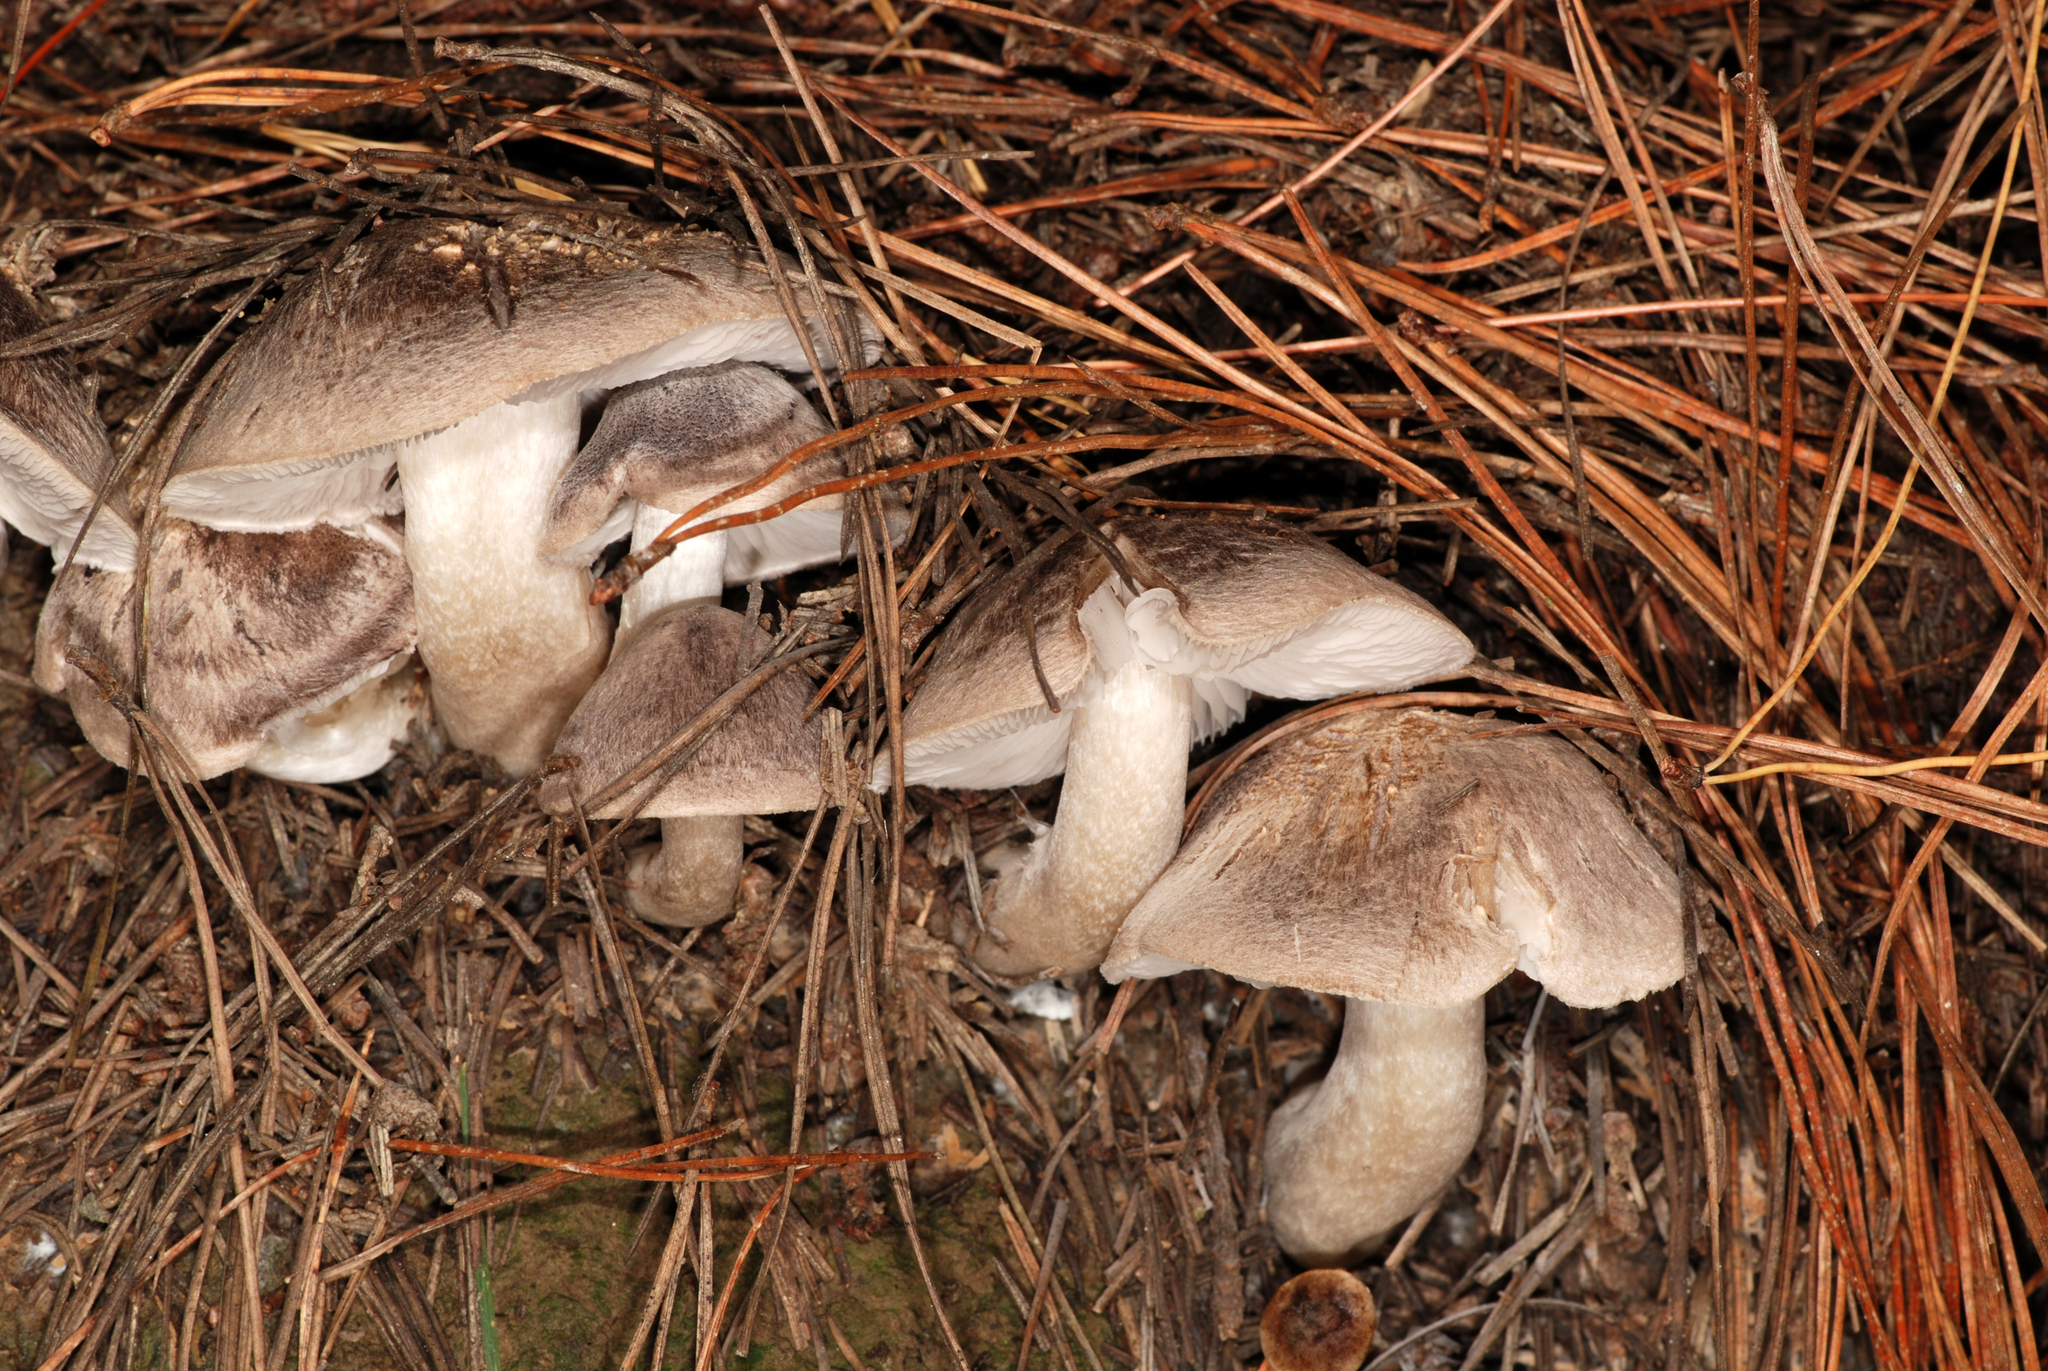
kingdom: Fungi
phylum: Basidiomycota
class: Agaricomycetes
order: Agaricales
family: Tricholomataceae
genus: Tricholoma
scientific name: Tricholoma terreum
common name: Grey knight
